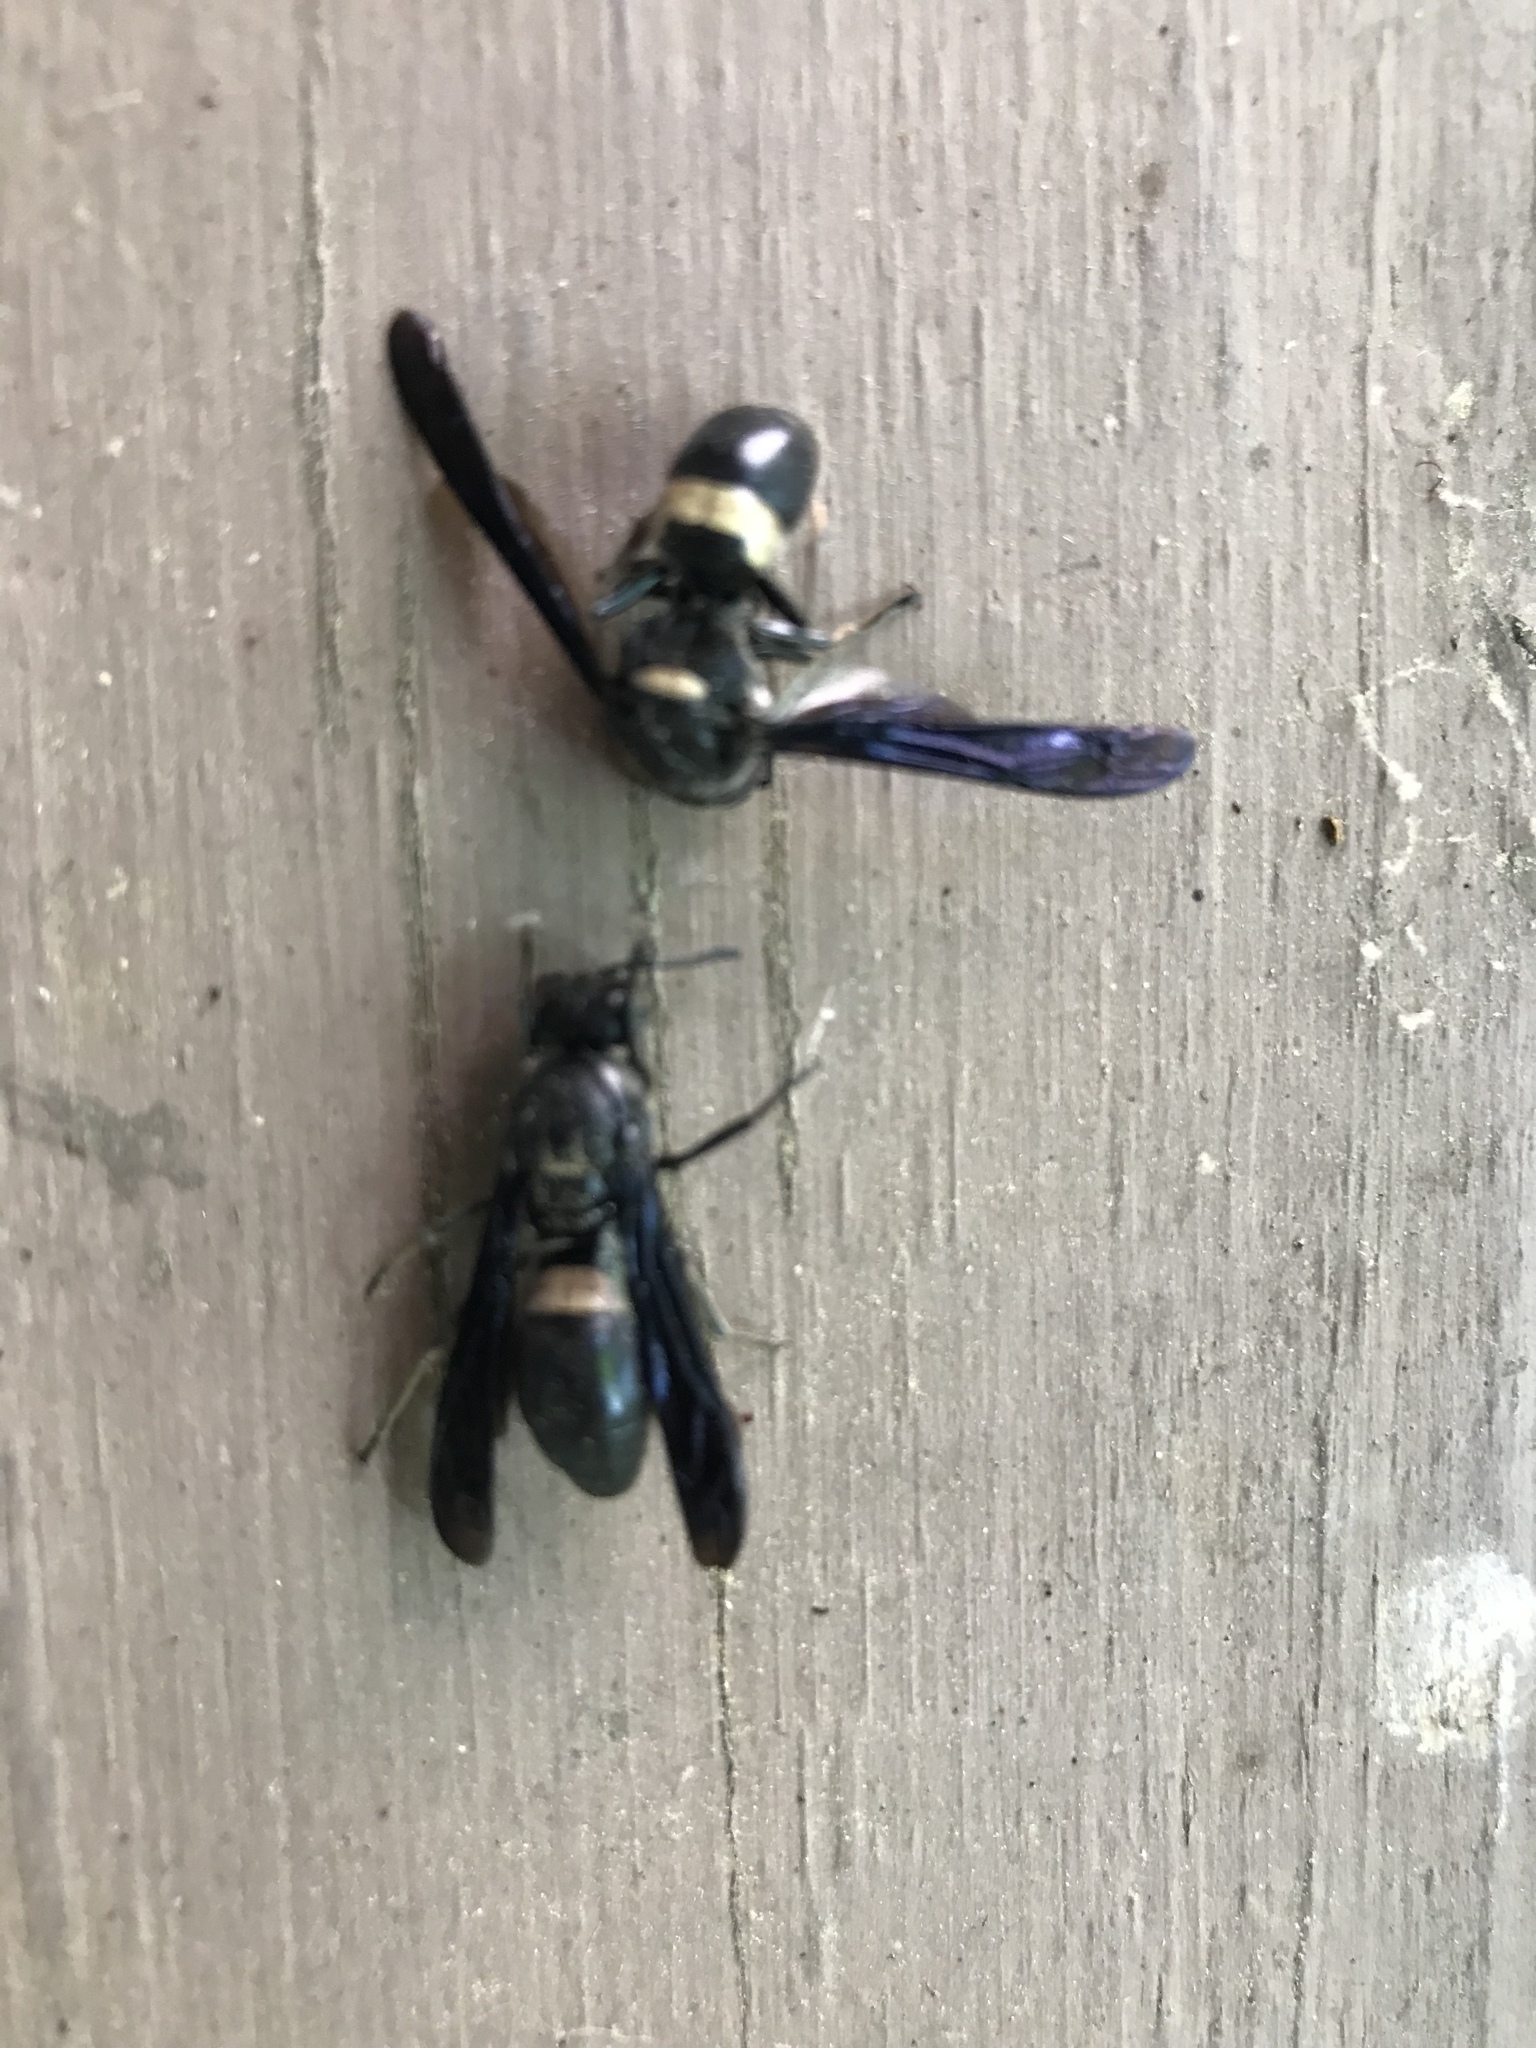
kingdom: Animalia
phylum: Arthropoda
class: Insecta
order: Hymenoptera
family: Eumenidae
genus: Monobia
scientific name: Monobia quadridens
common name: Four-toothed mason wasp
